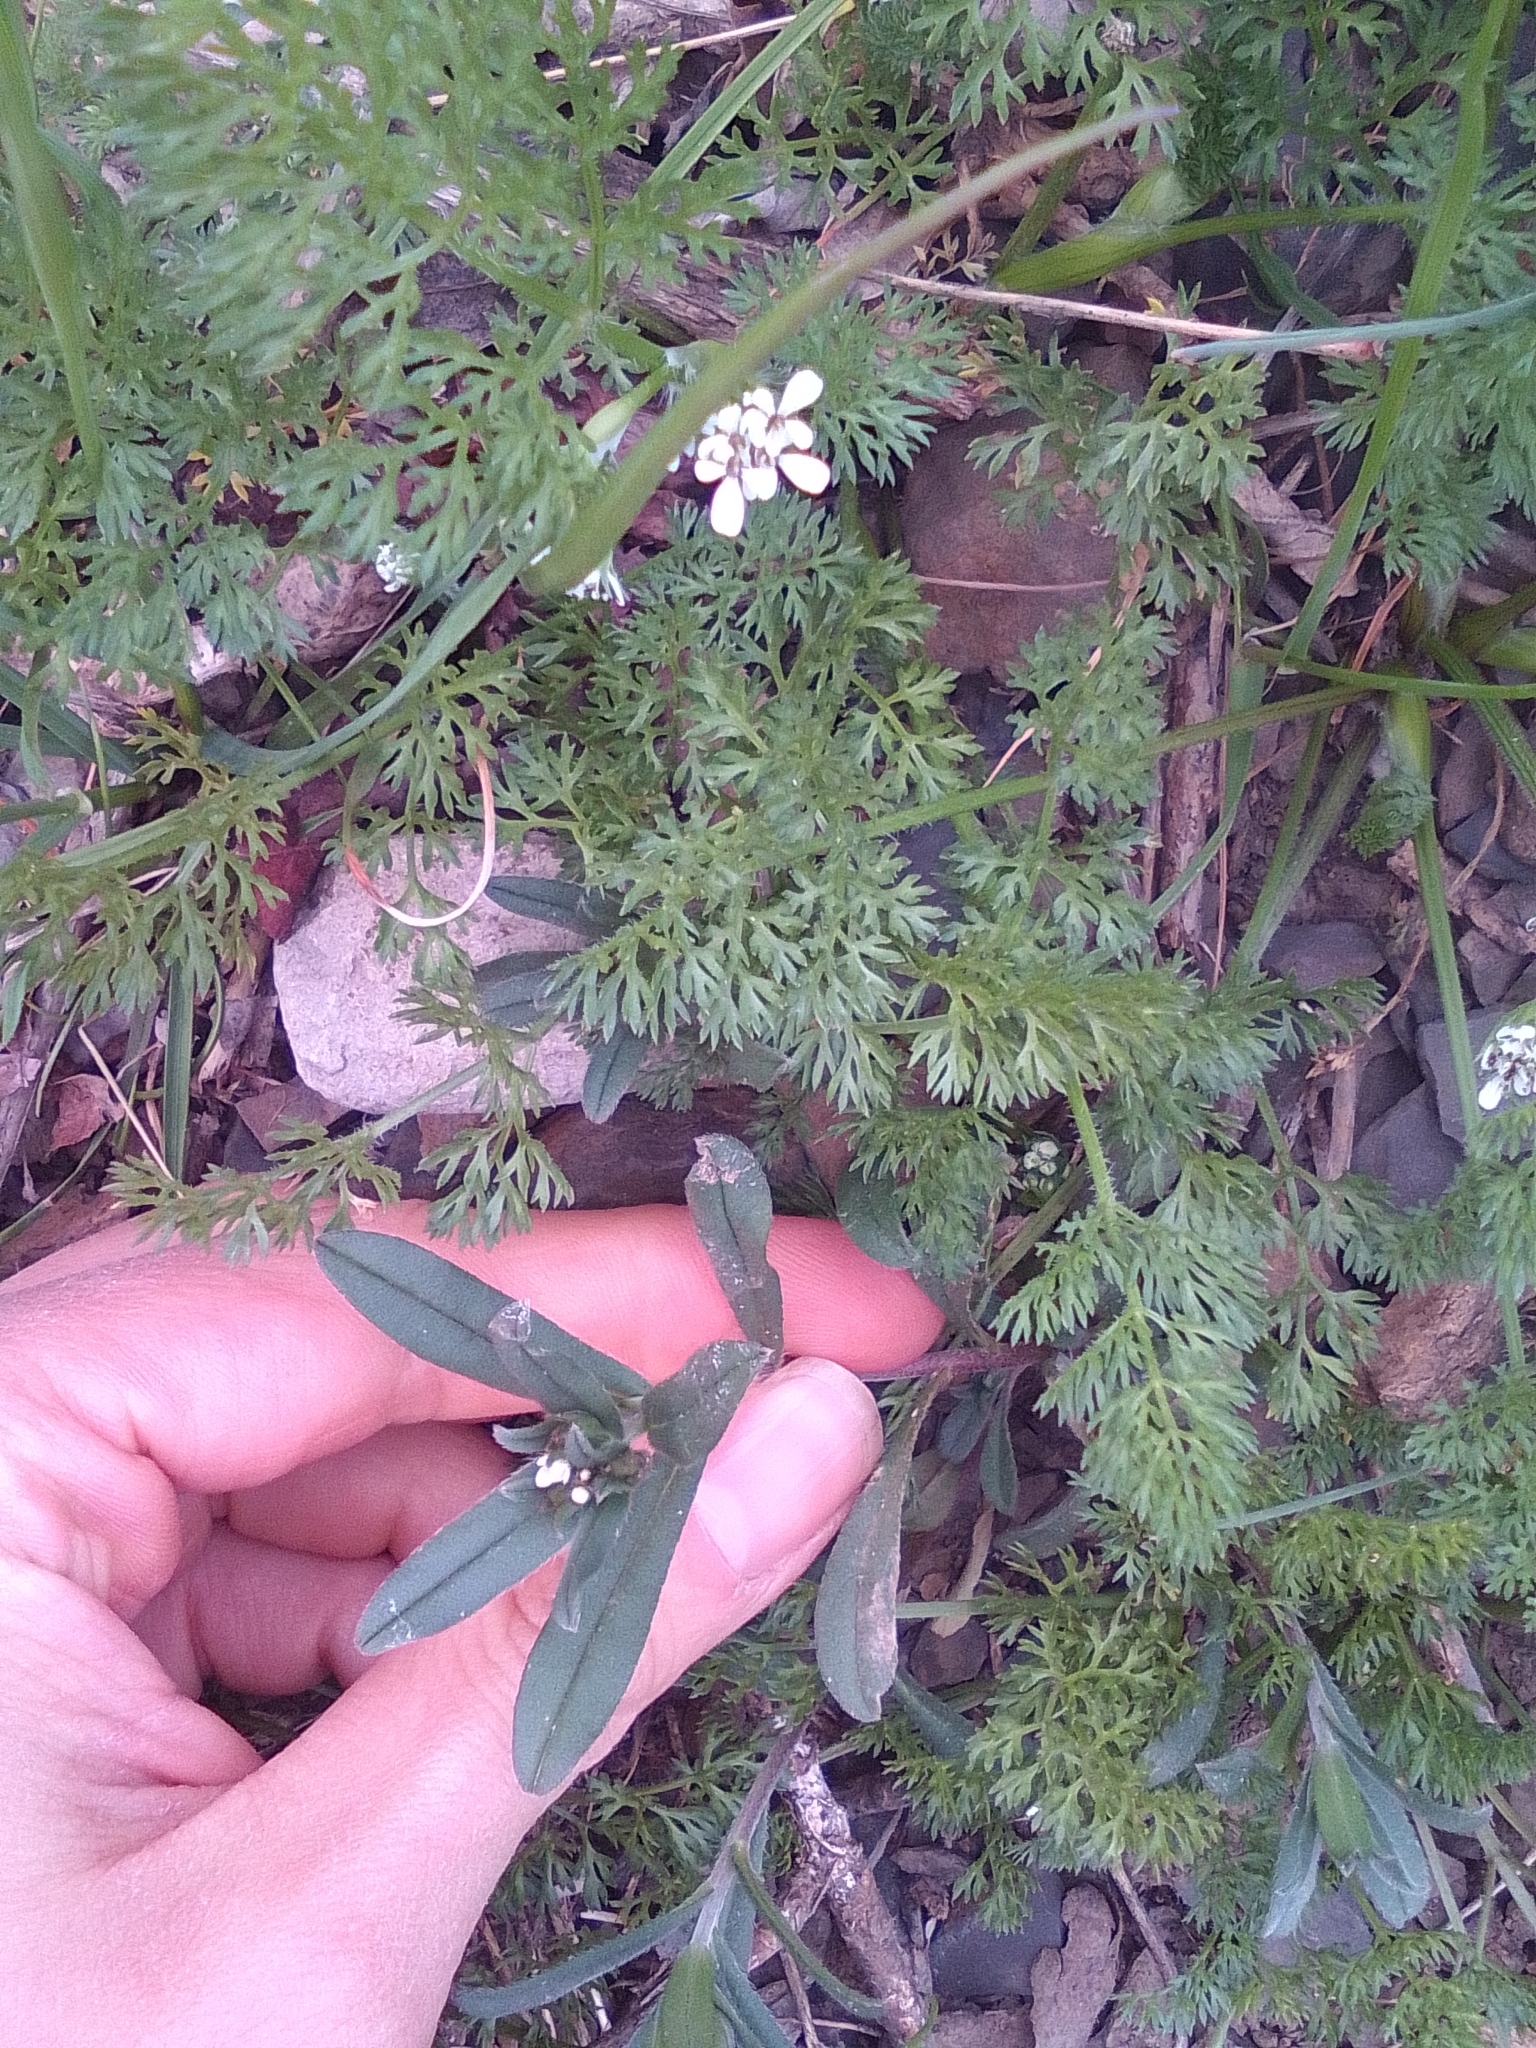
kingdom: Plantae
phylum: Tracheophyta
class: Magnoliopsida
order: Boraginales
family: Boraginaceae
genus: Buglossoides
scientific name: Buglossoides arvensis
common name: Corn gromwell
